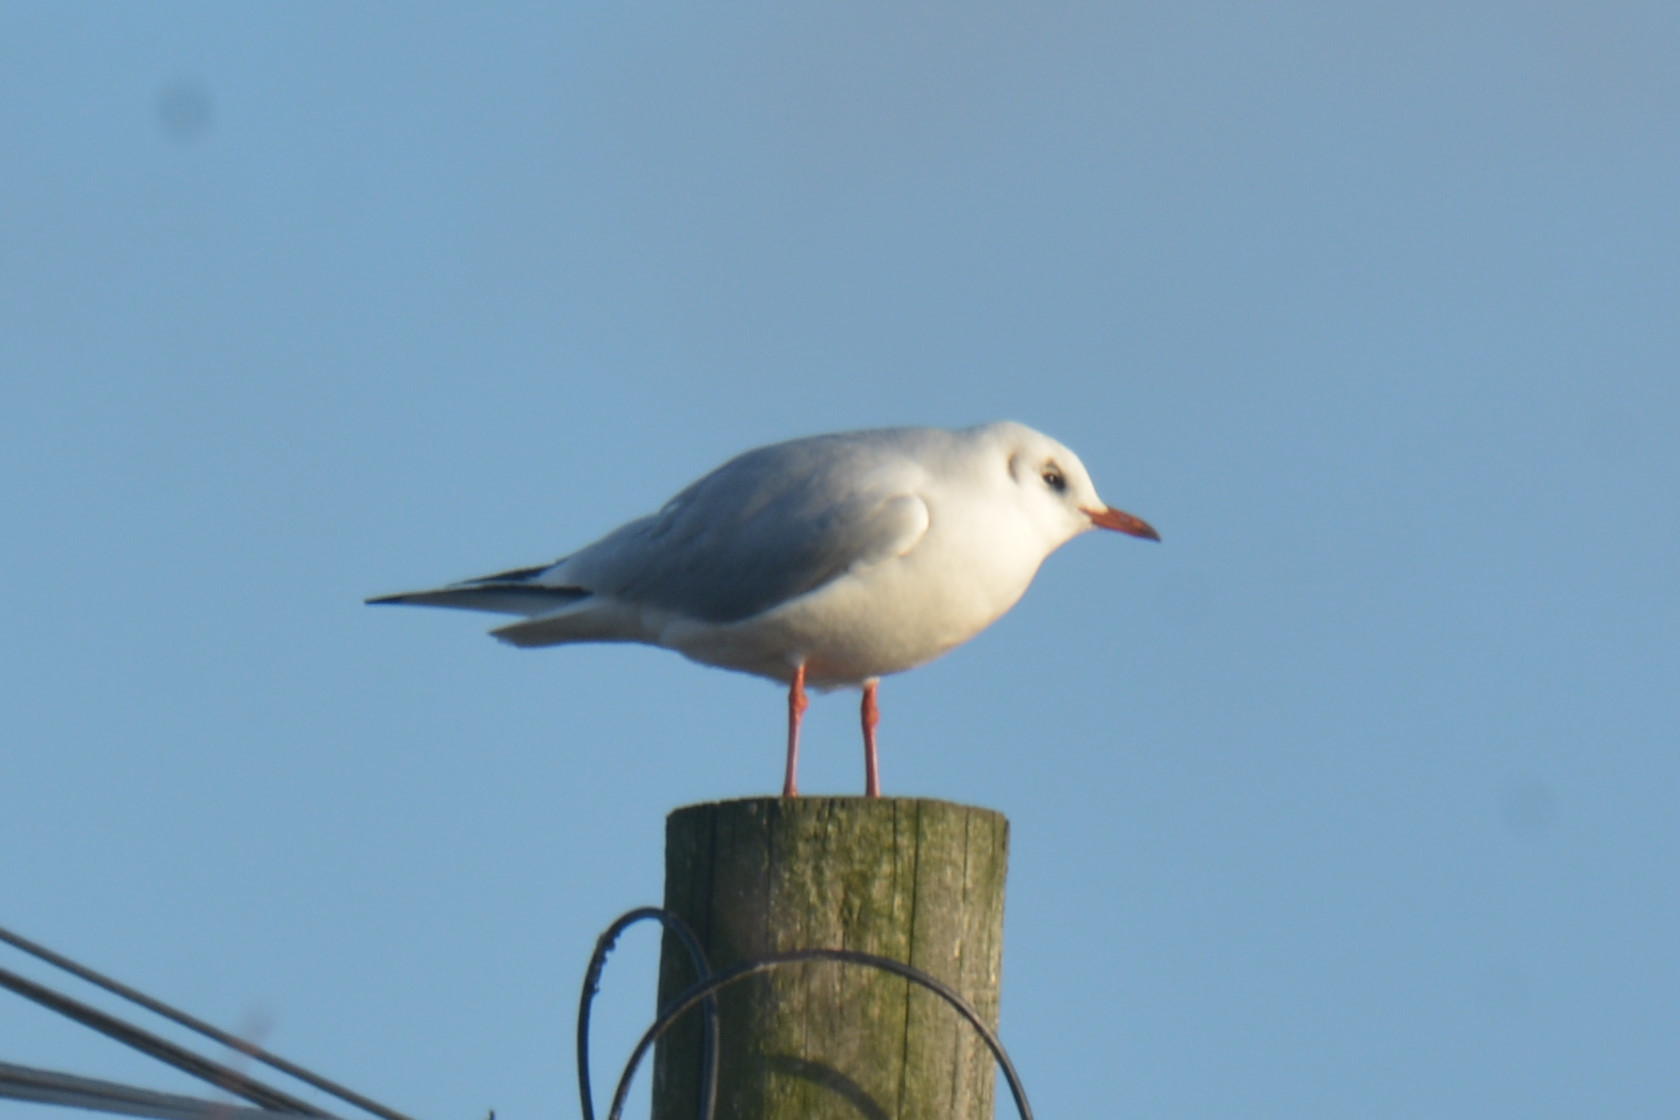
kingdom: Animalia
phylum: Chordata
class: Aves
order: Charadriiformes
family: Laridae
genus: Chroicocephalus
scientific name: Chroicocephalus ridibundus
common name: Black-headed gull
